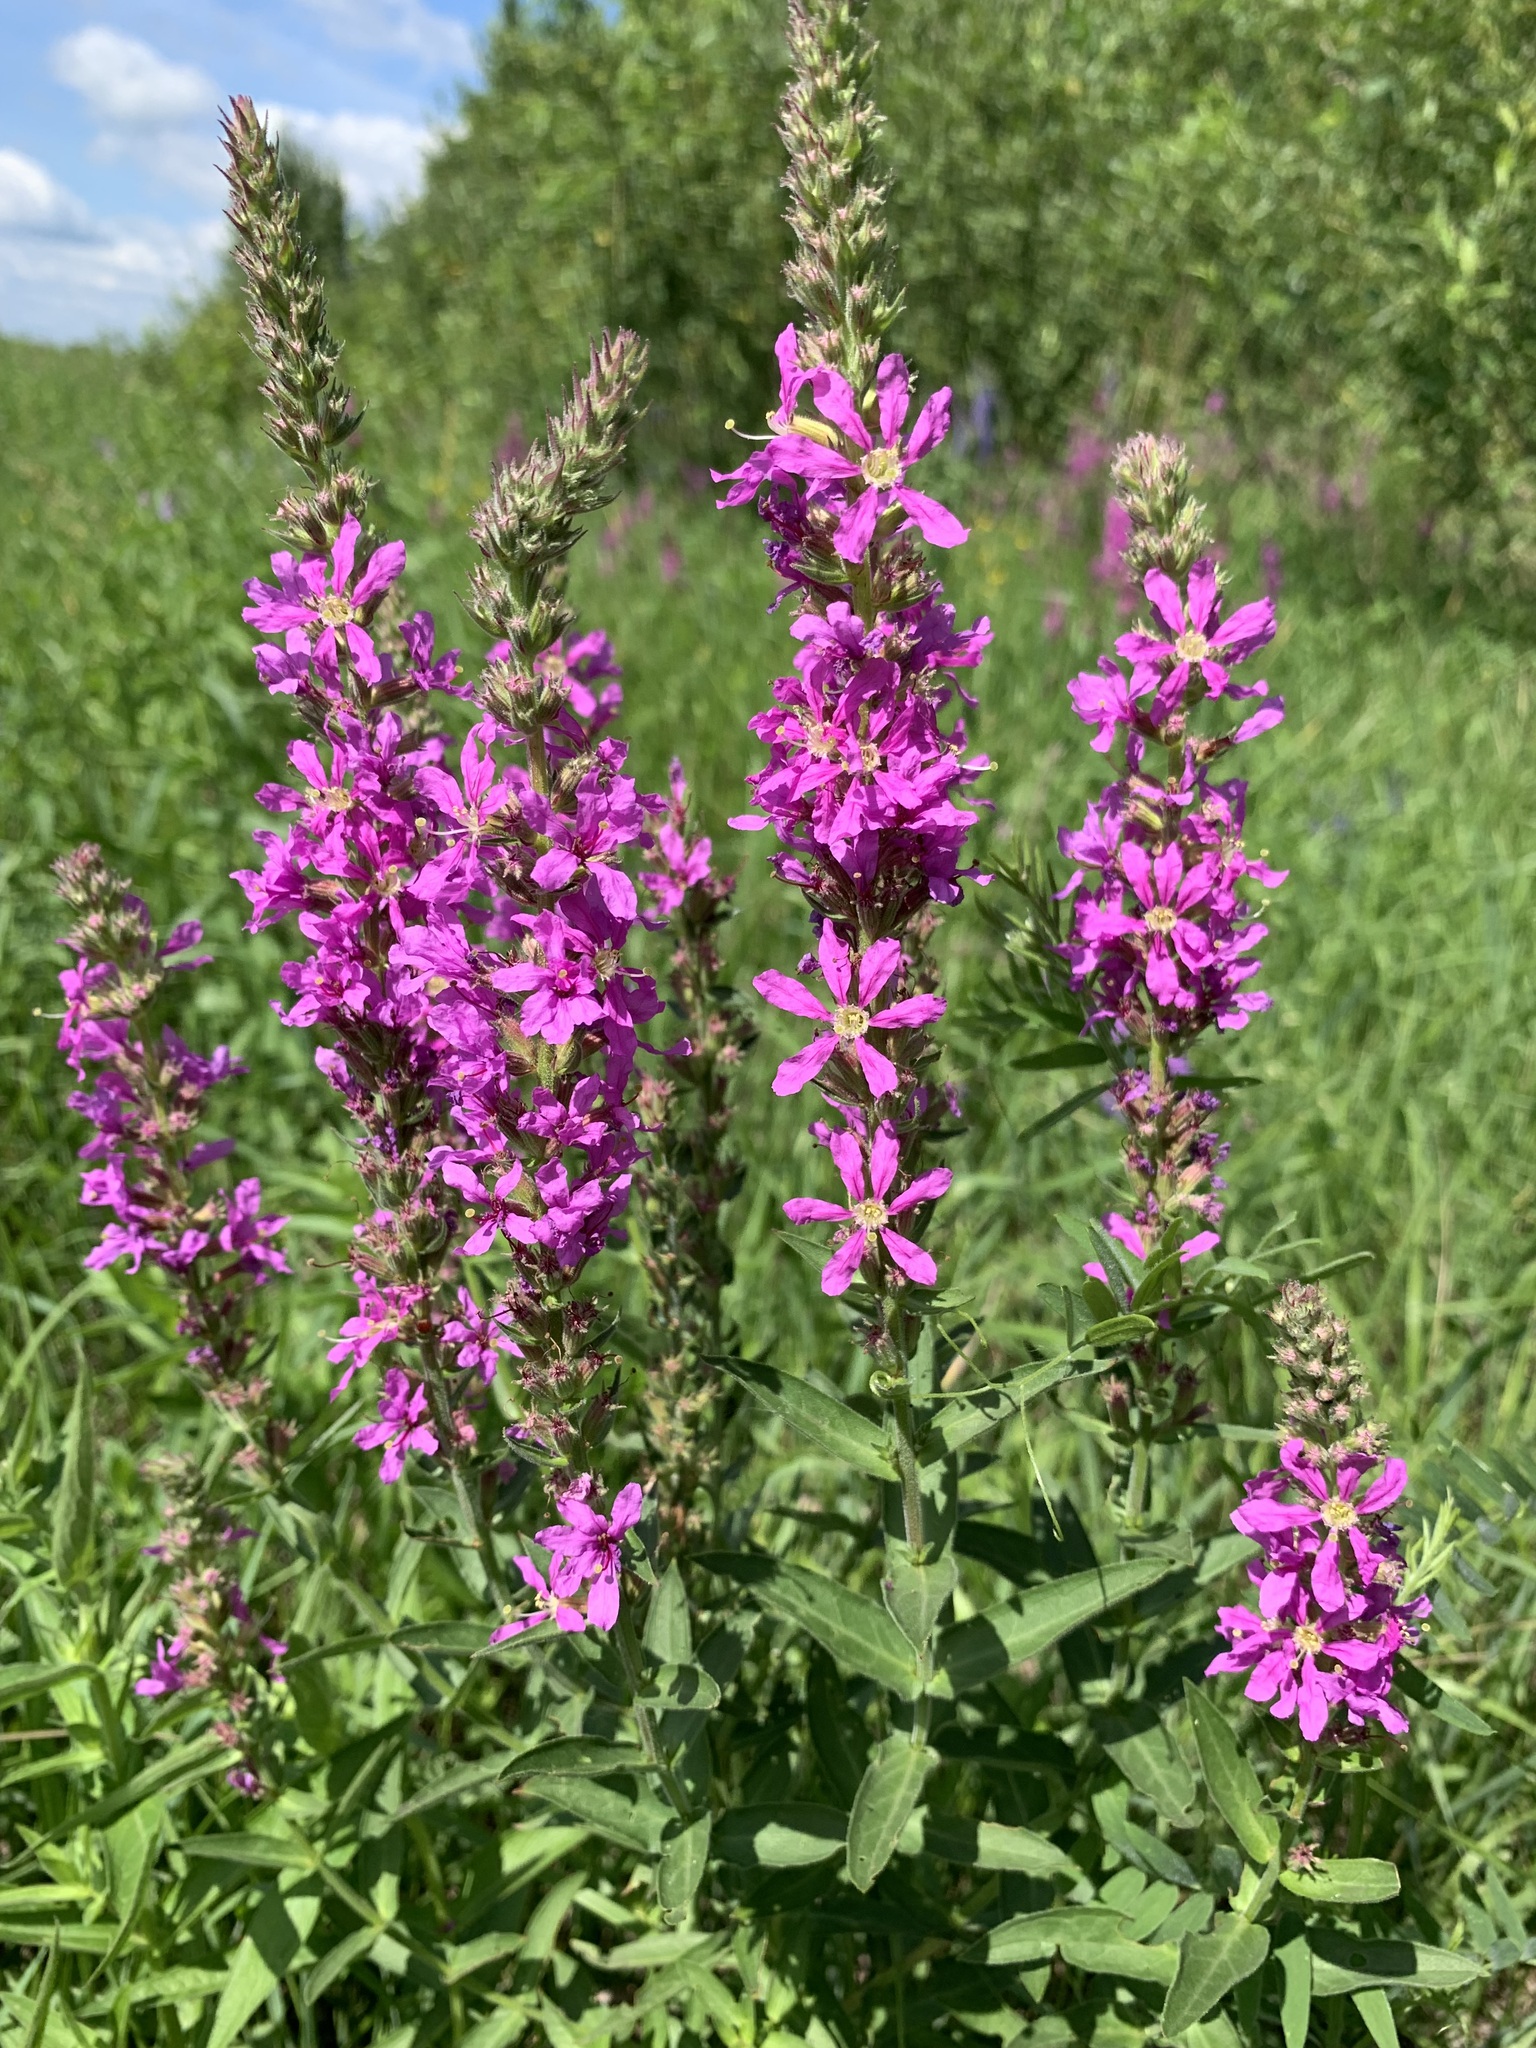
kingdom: Plantae
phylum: Tracheophyta
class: Magnoliopsida
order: Myrtales
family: Lythraceae
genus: Lythrum
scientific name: Lythrum salicaria
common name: Purple loosestrife
